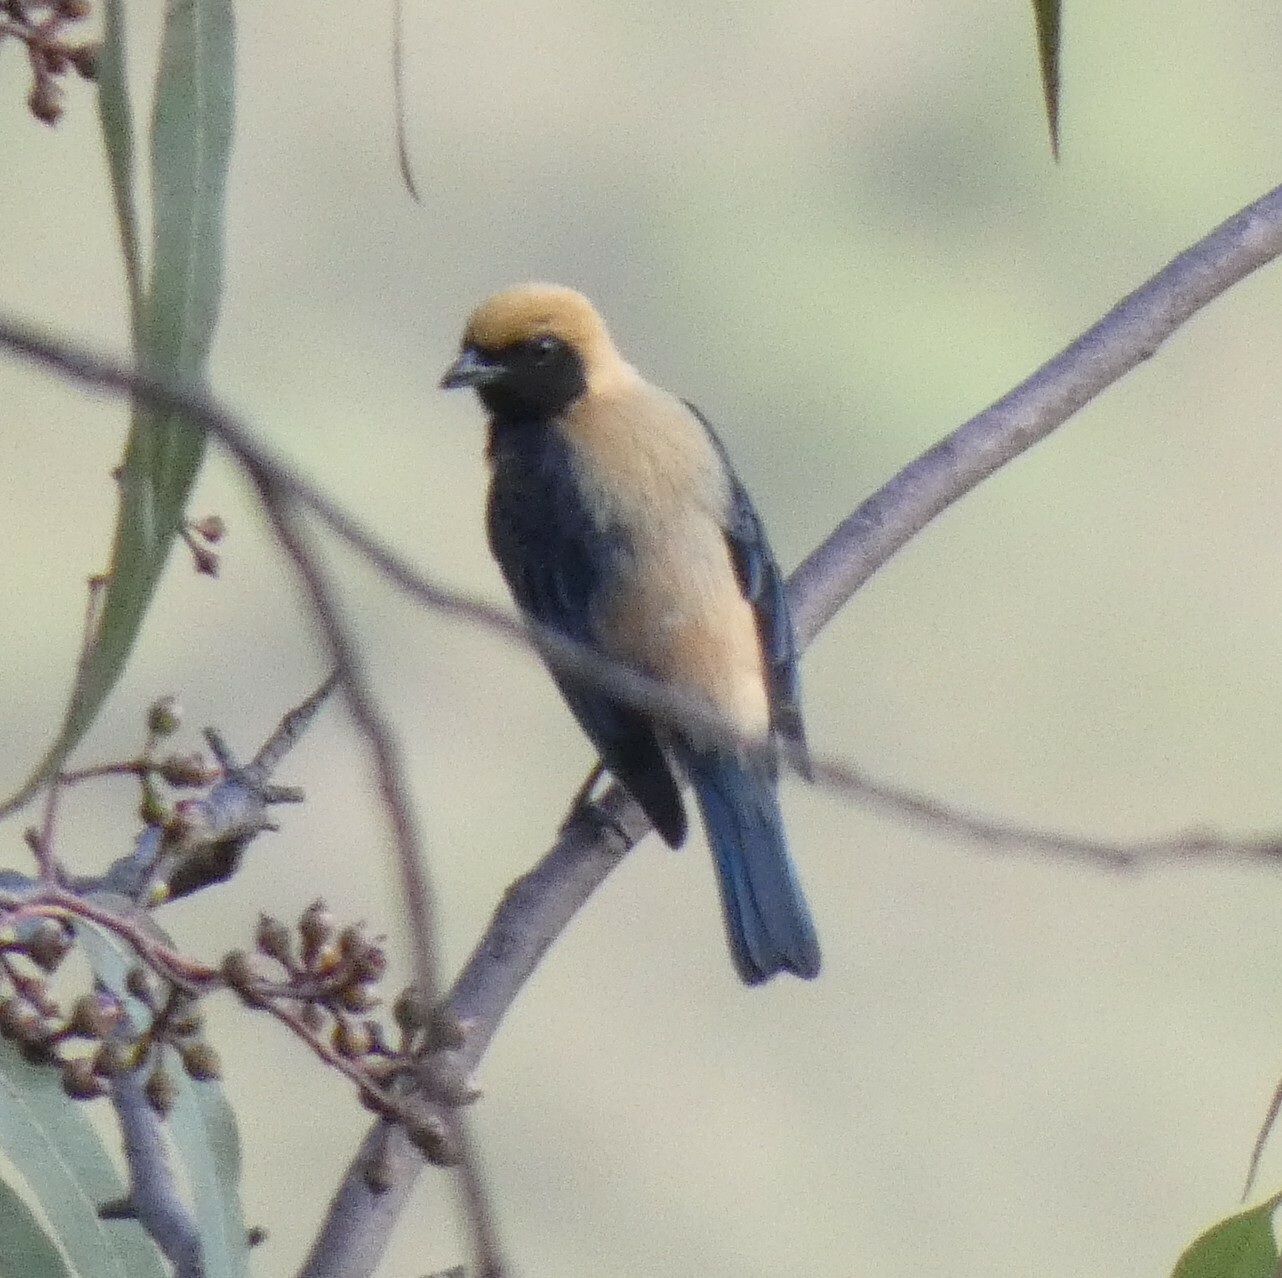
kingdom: Animalia
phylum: Chordata
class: Aves
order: Passeriformes
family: Thraupidae
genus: Stilpnia
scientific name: Stilpnia cayana
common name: Burnished-buff tanager
